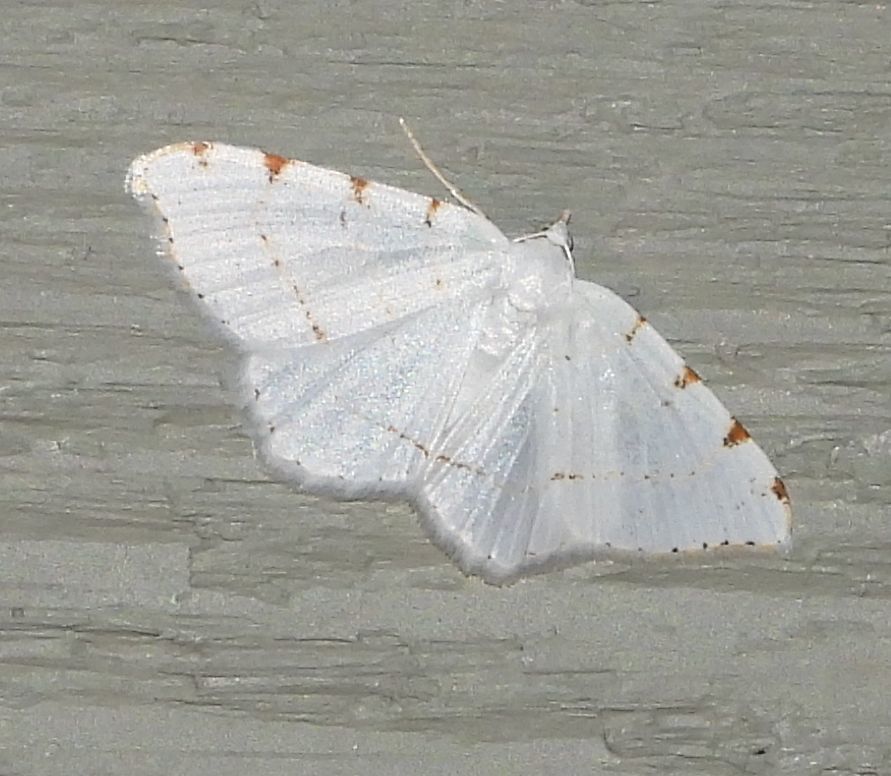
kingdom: Animalia
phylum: Arthropoda
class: Insecta
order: Lepidoptera
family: Geometridae
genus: Macaria
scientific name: Macaria pustularia
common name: Lesser maple spanworm moth
